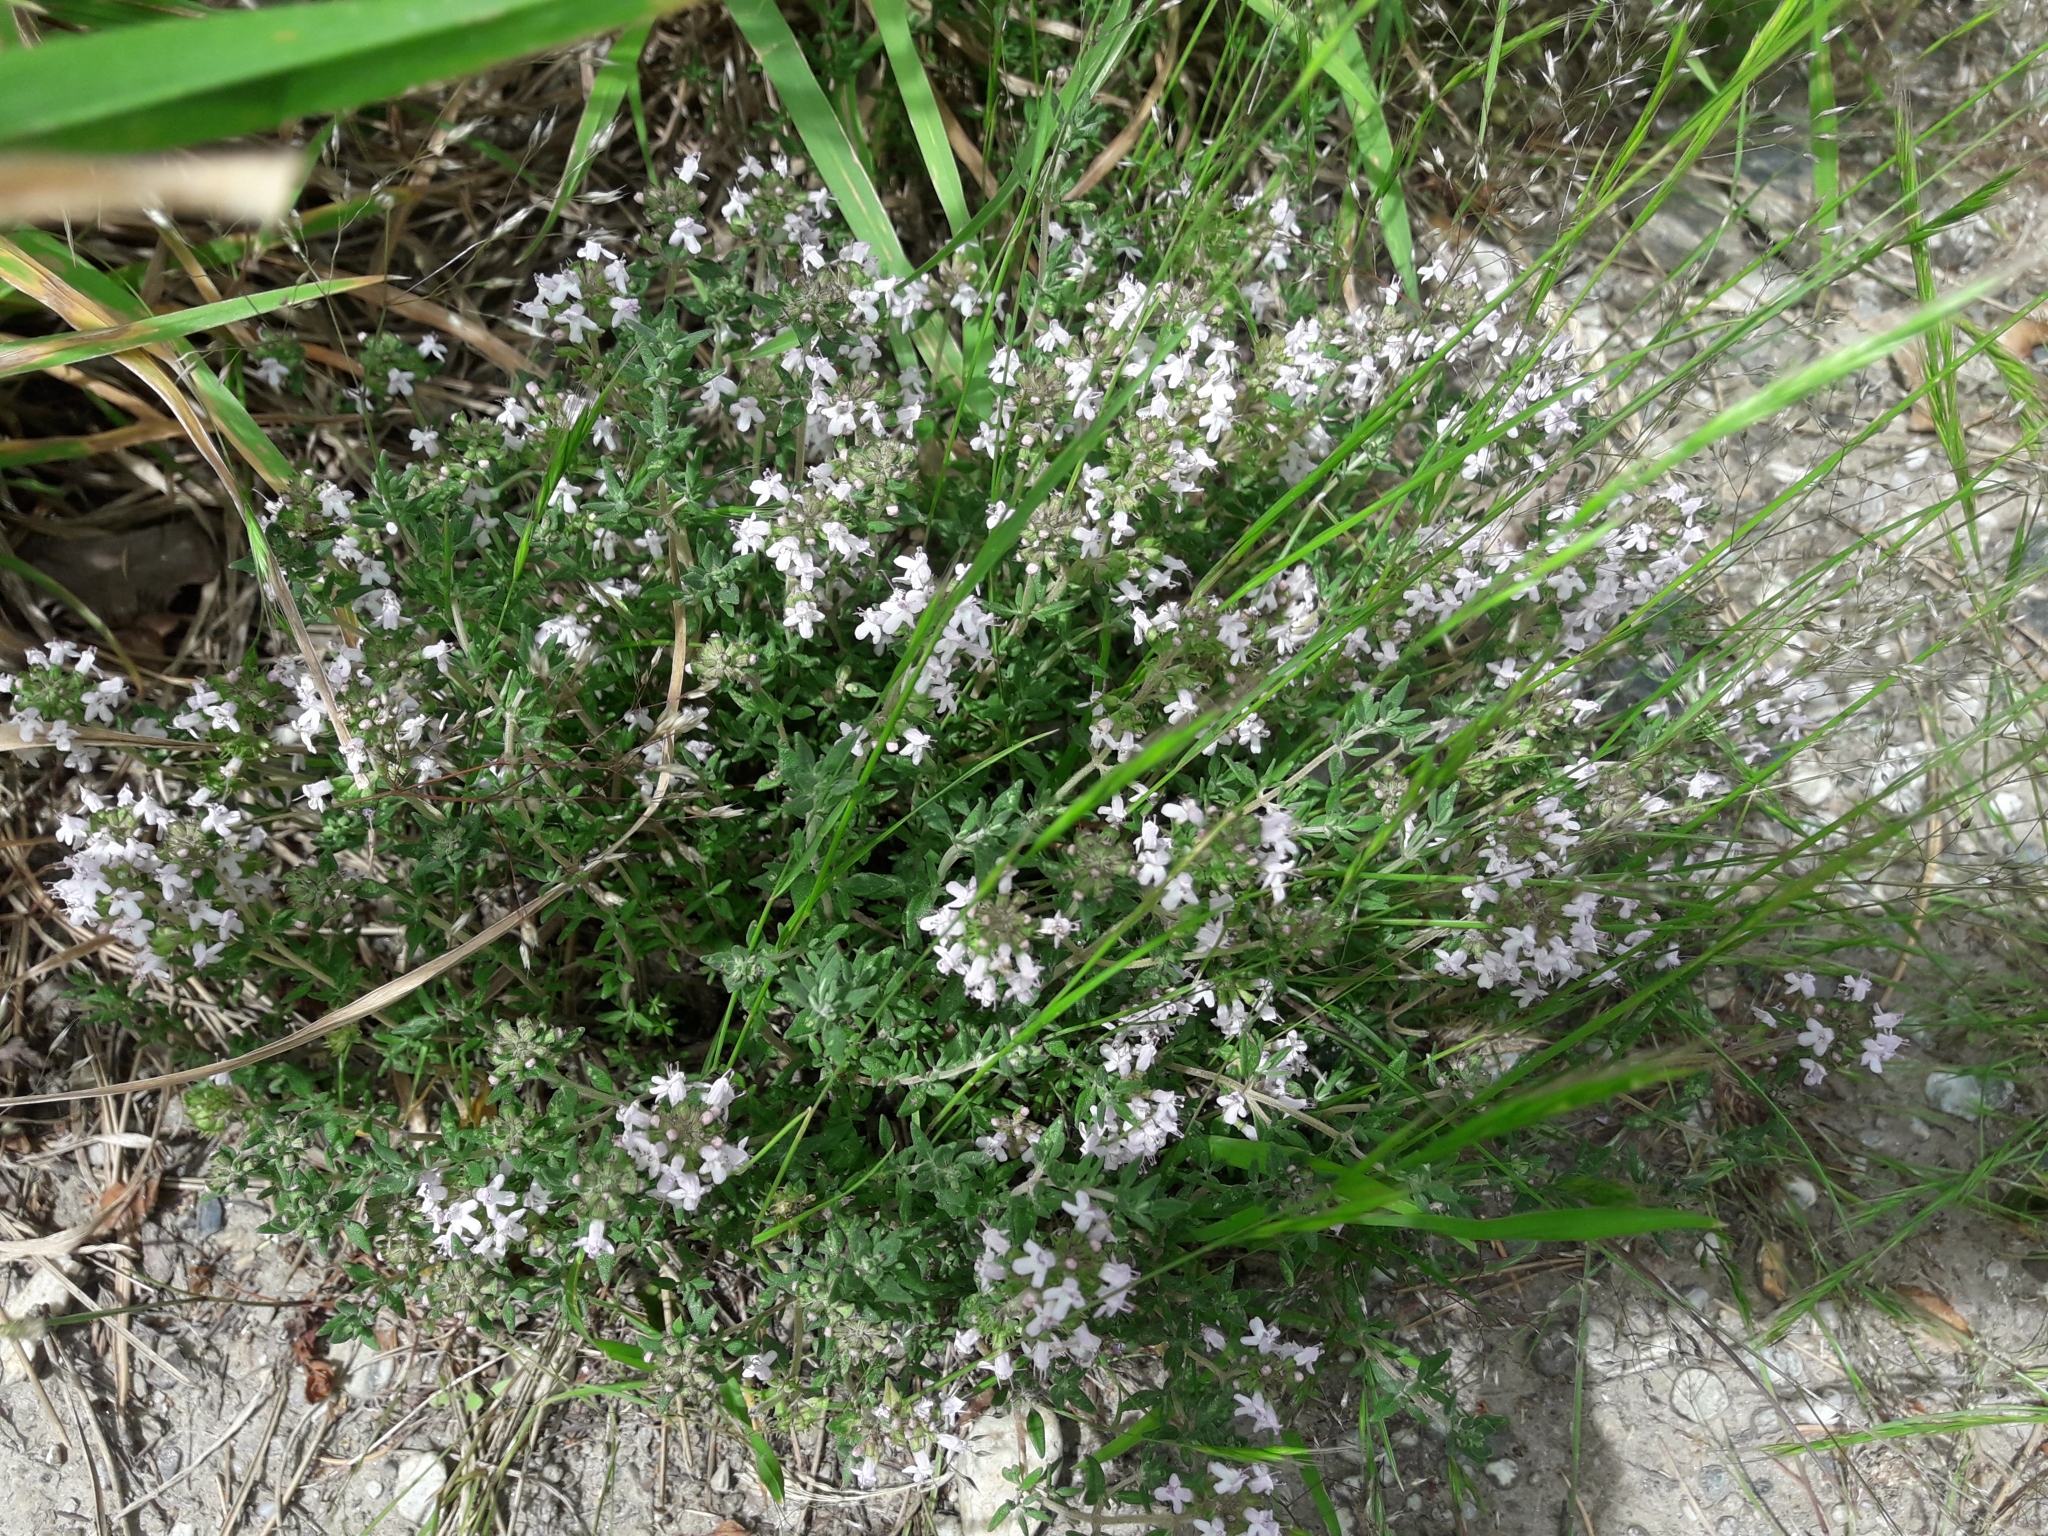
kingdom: Plantae
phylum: Tracheophyta
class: Magnoliopsida
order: Lamiales
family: Lamiaceae
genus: Thymus
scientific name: Thymus vulgaris
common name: Garden thyme
